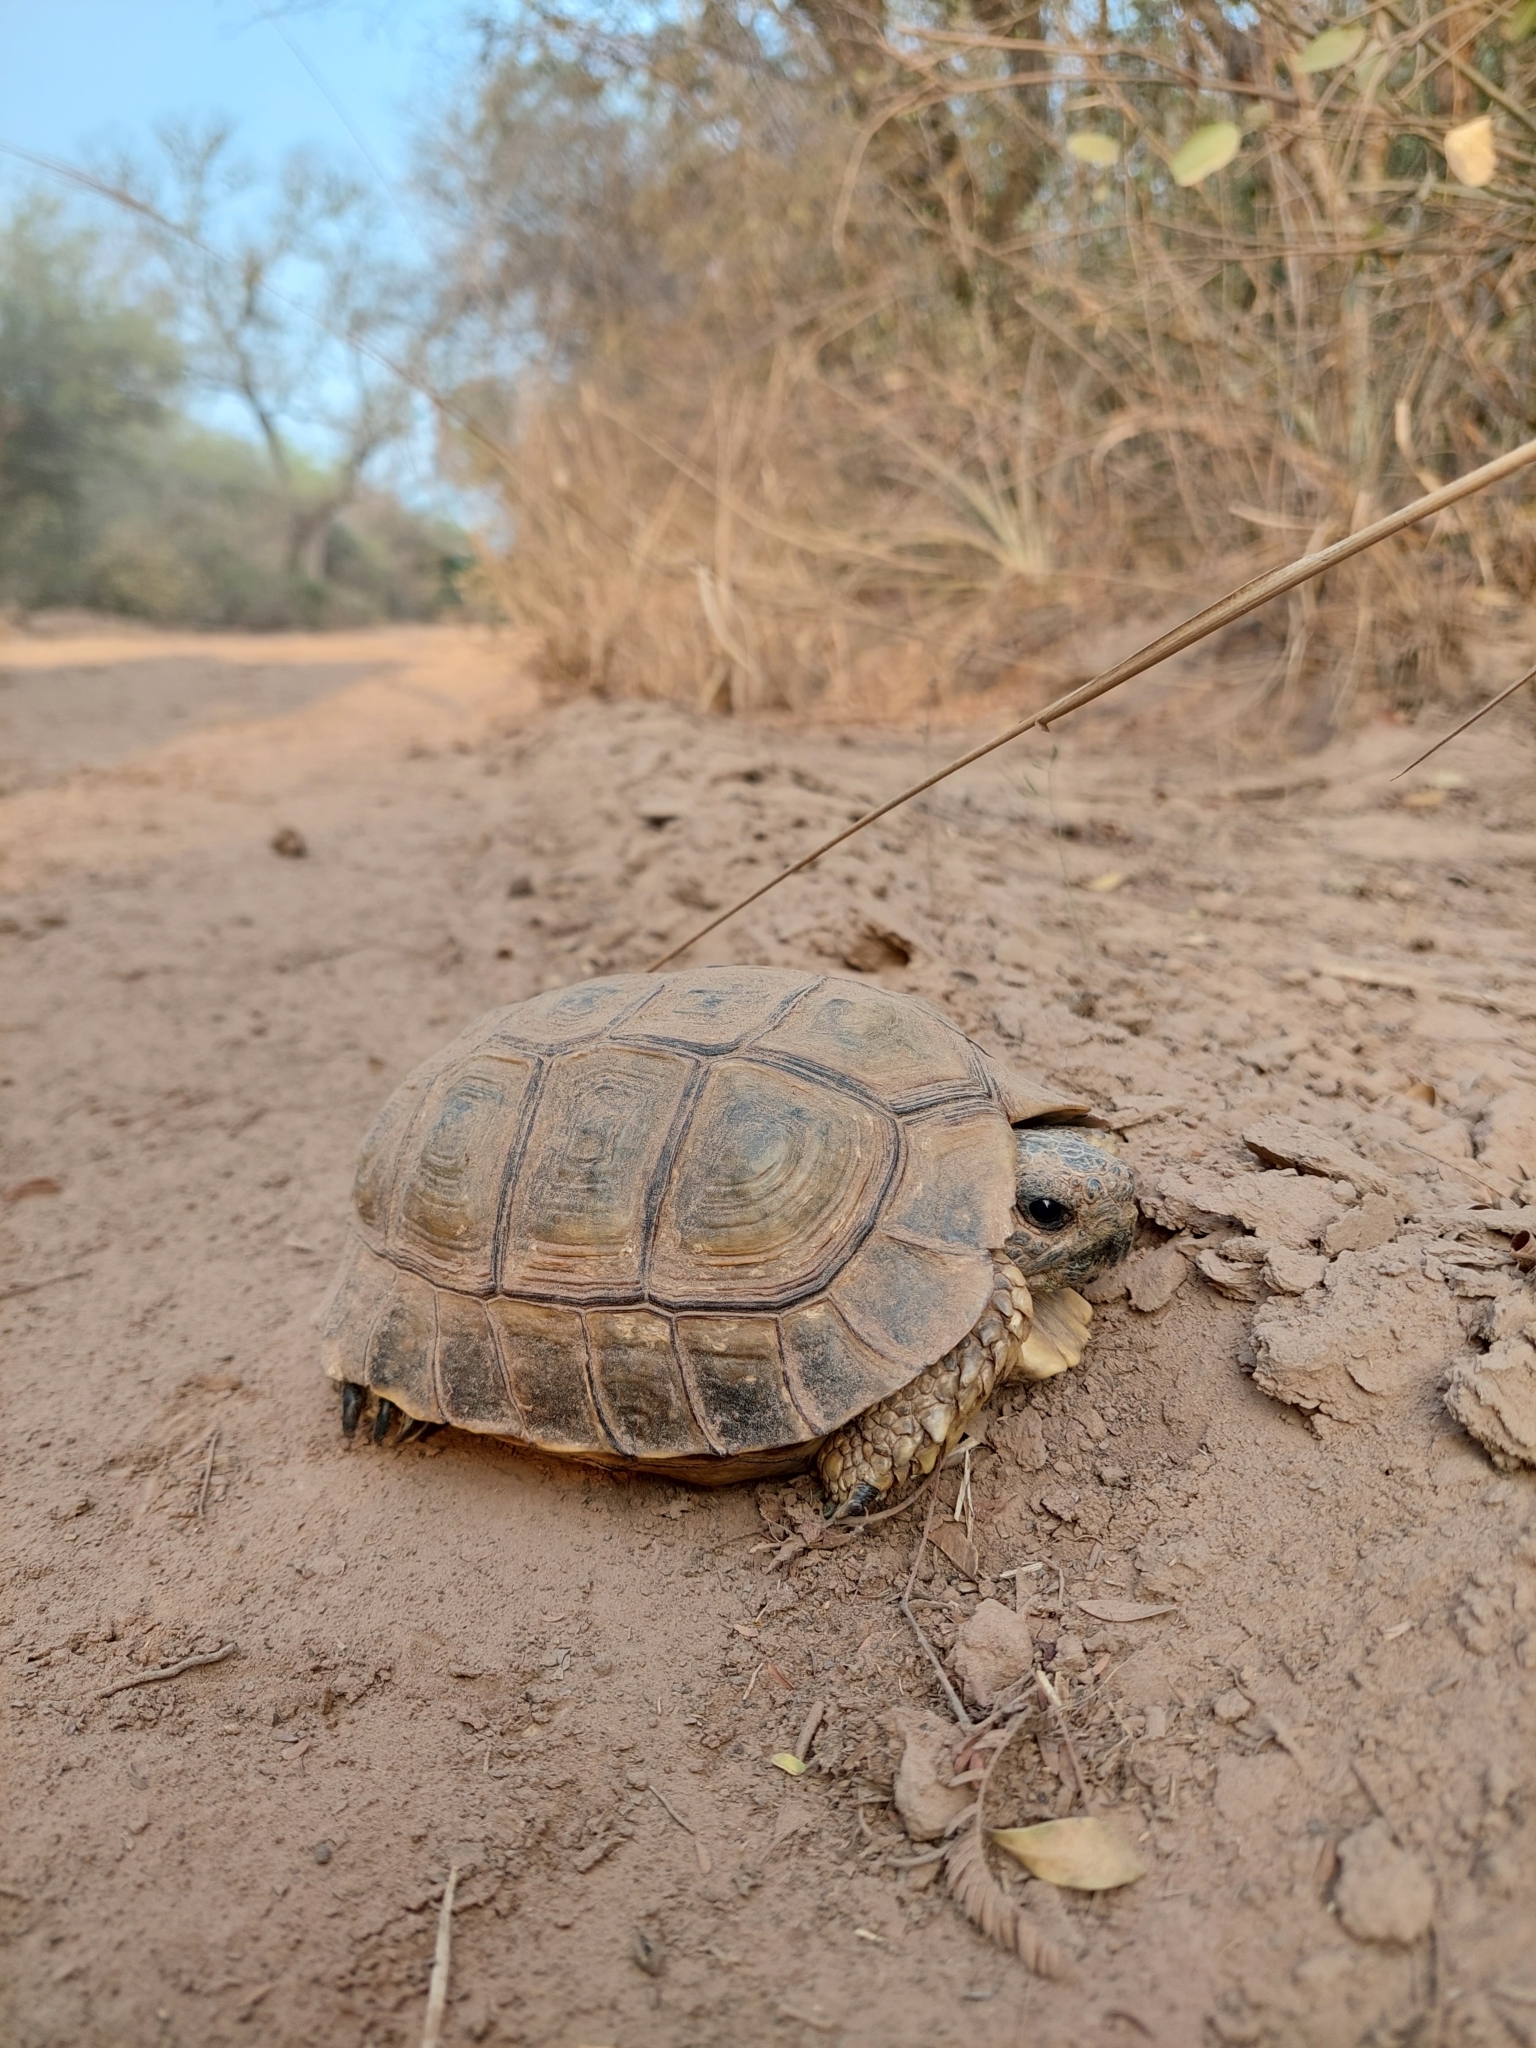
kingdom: Animalia
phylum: Chordata
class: Testudines
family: Testudinidae
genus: Chelonoidis
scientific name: Chelonoidis chilensis
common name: Chaco tortoise
